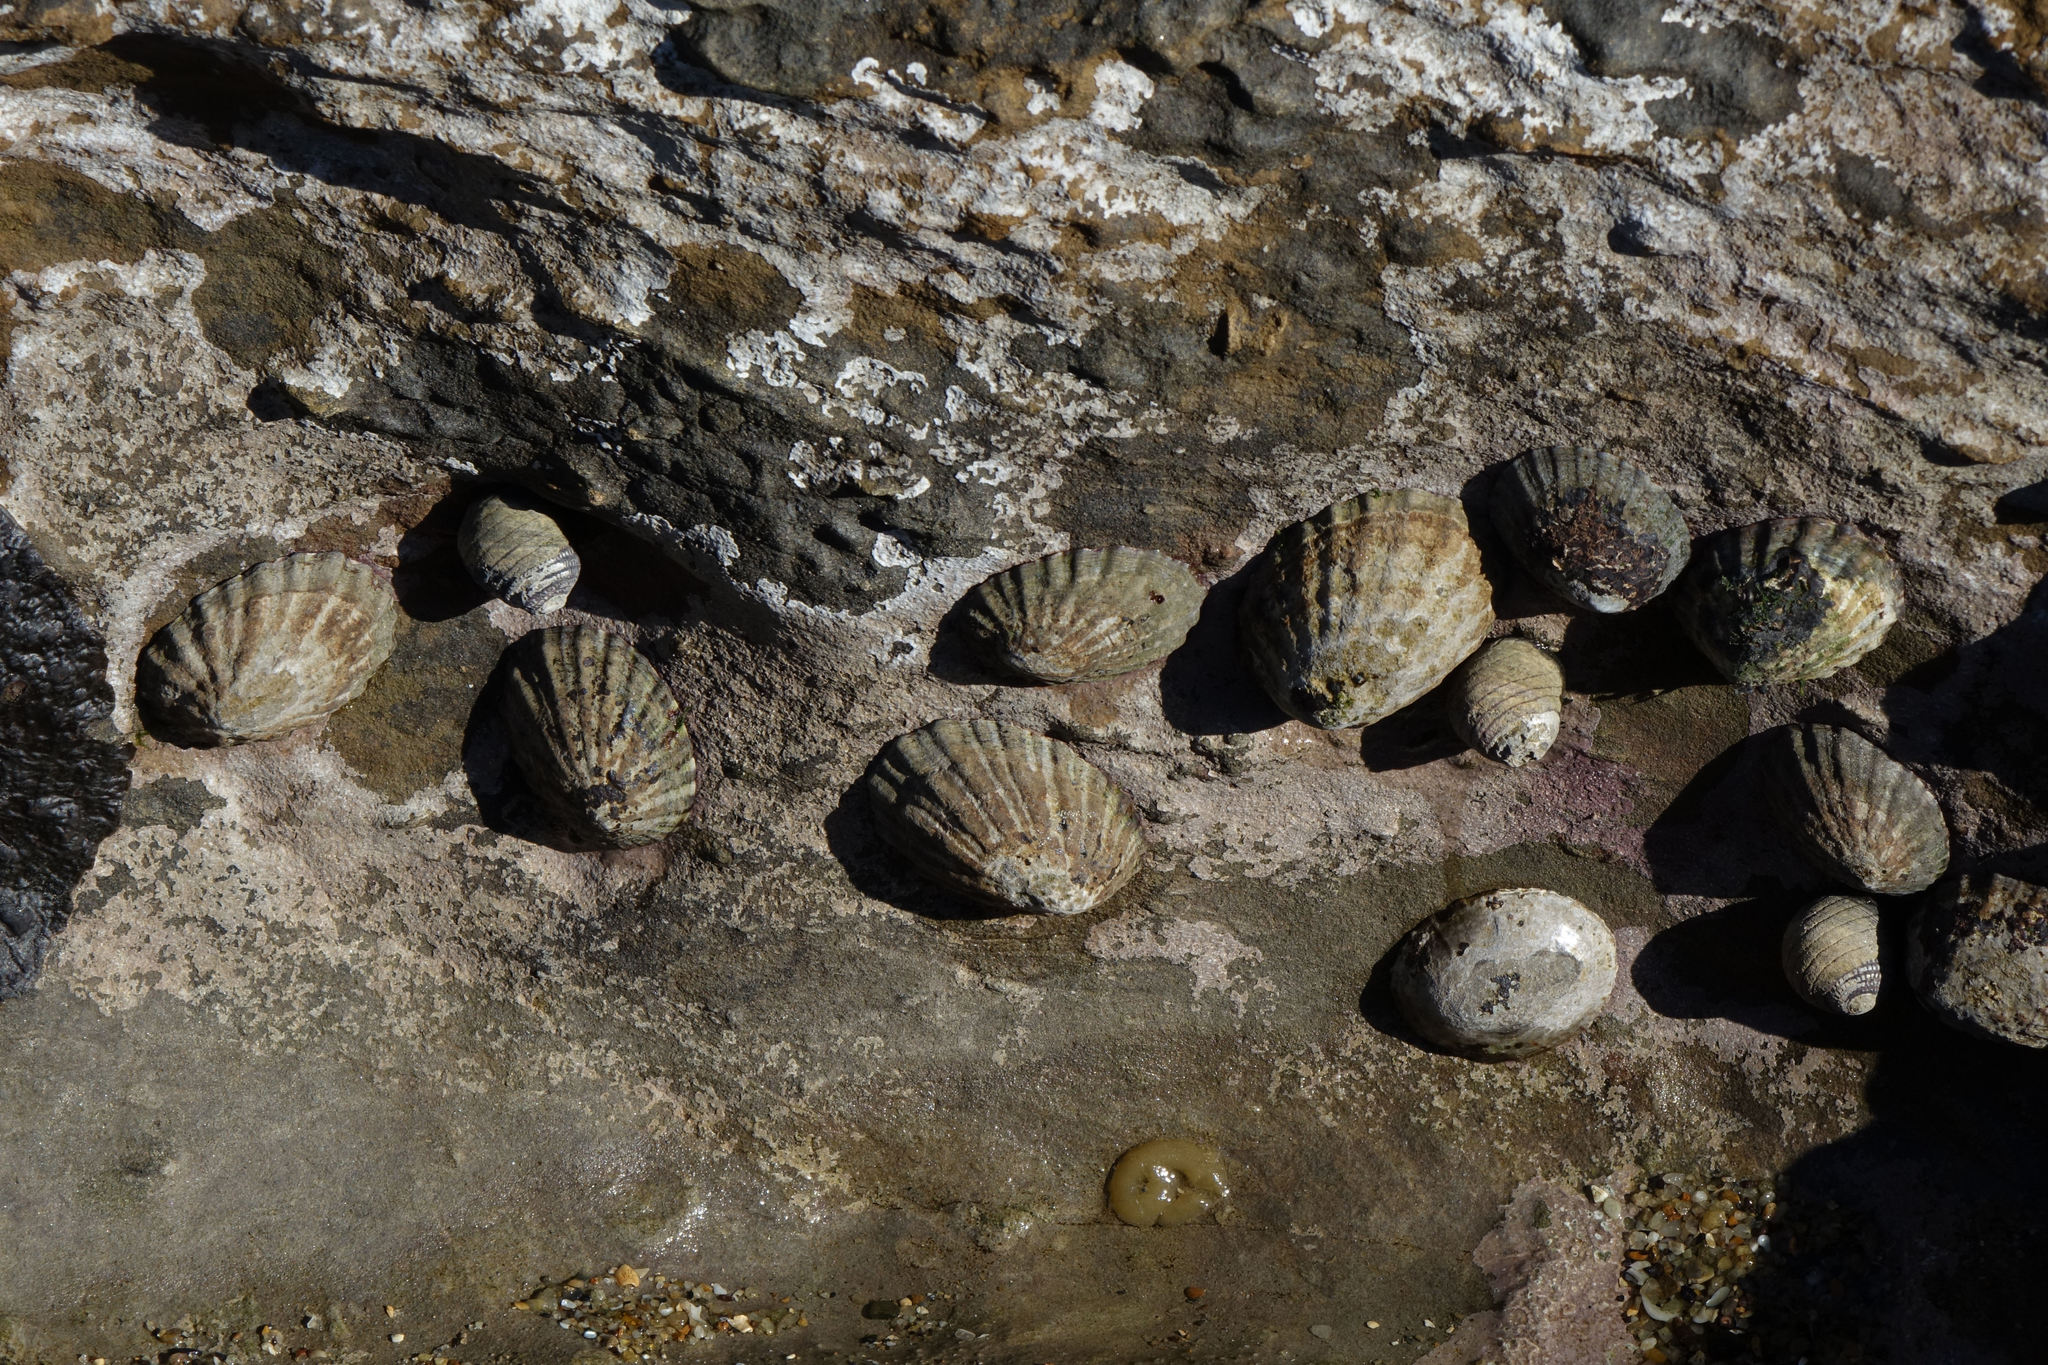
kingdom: Animalia
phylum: Mollusca
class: Gastropoda
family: Nacellidae
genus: Cellana
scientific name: Cellana strigilis
